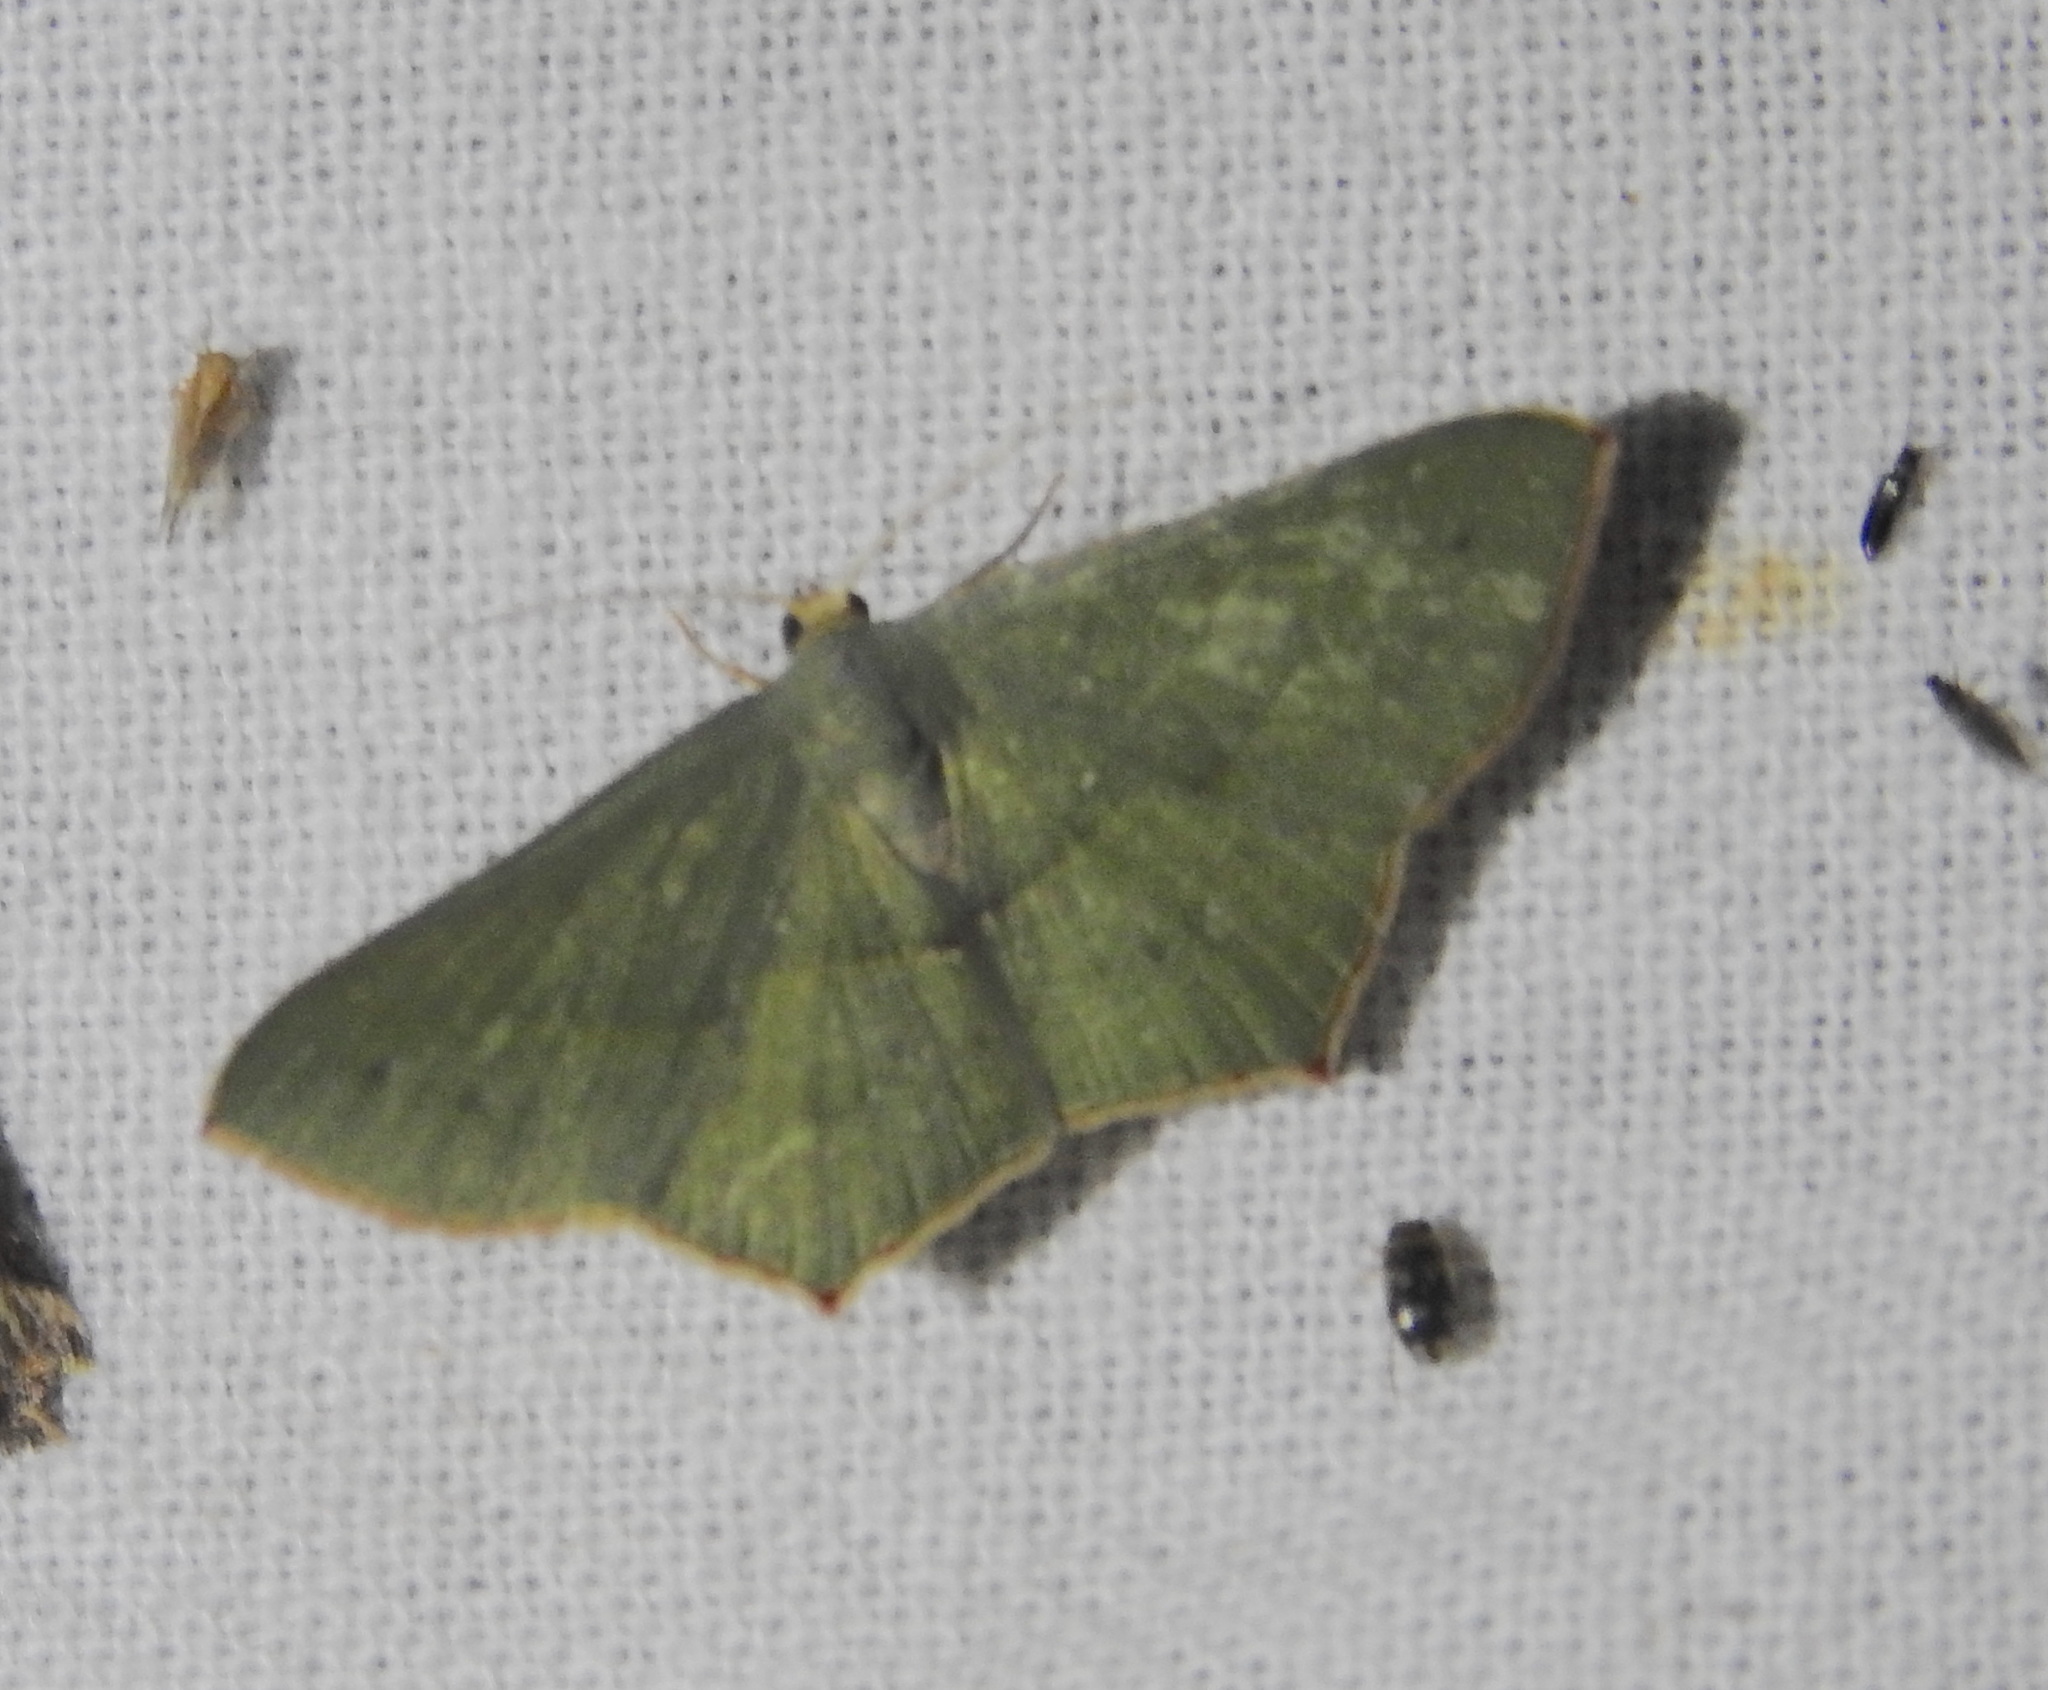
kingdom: Animalia
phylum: Arthropoda
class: Insecta
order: Lepidoptera
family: Geometridae
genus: Traminda
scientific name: Traminda mundissima
